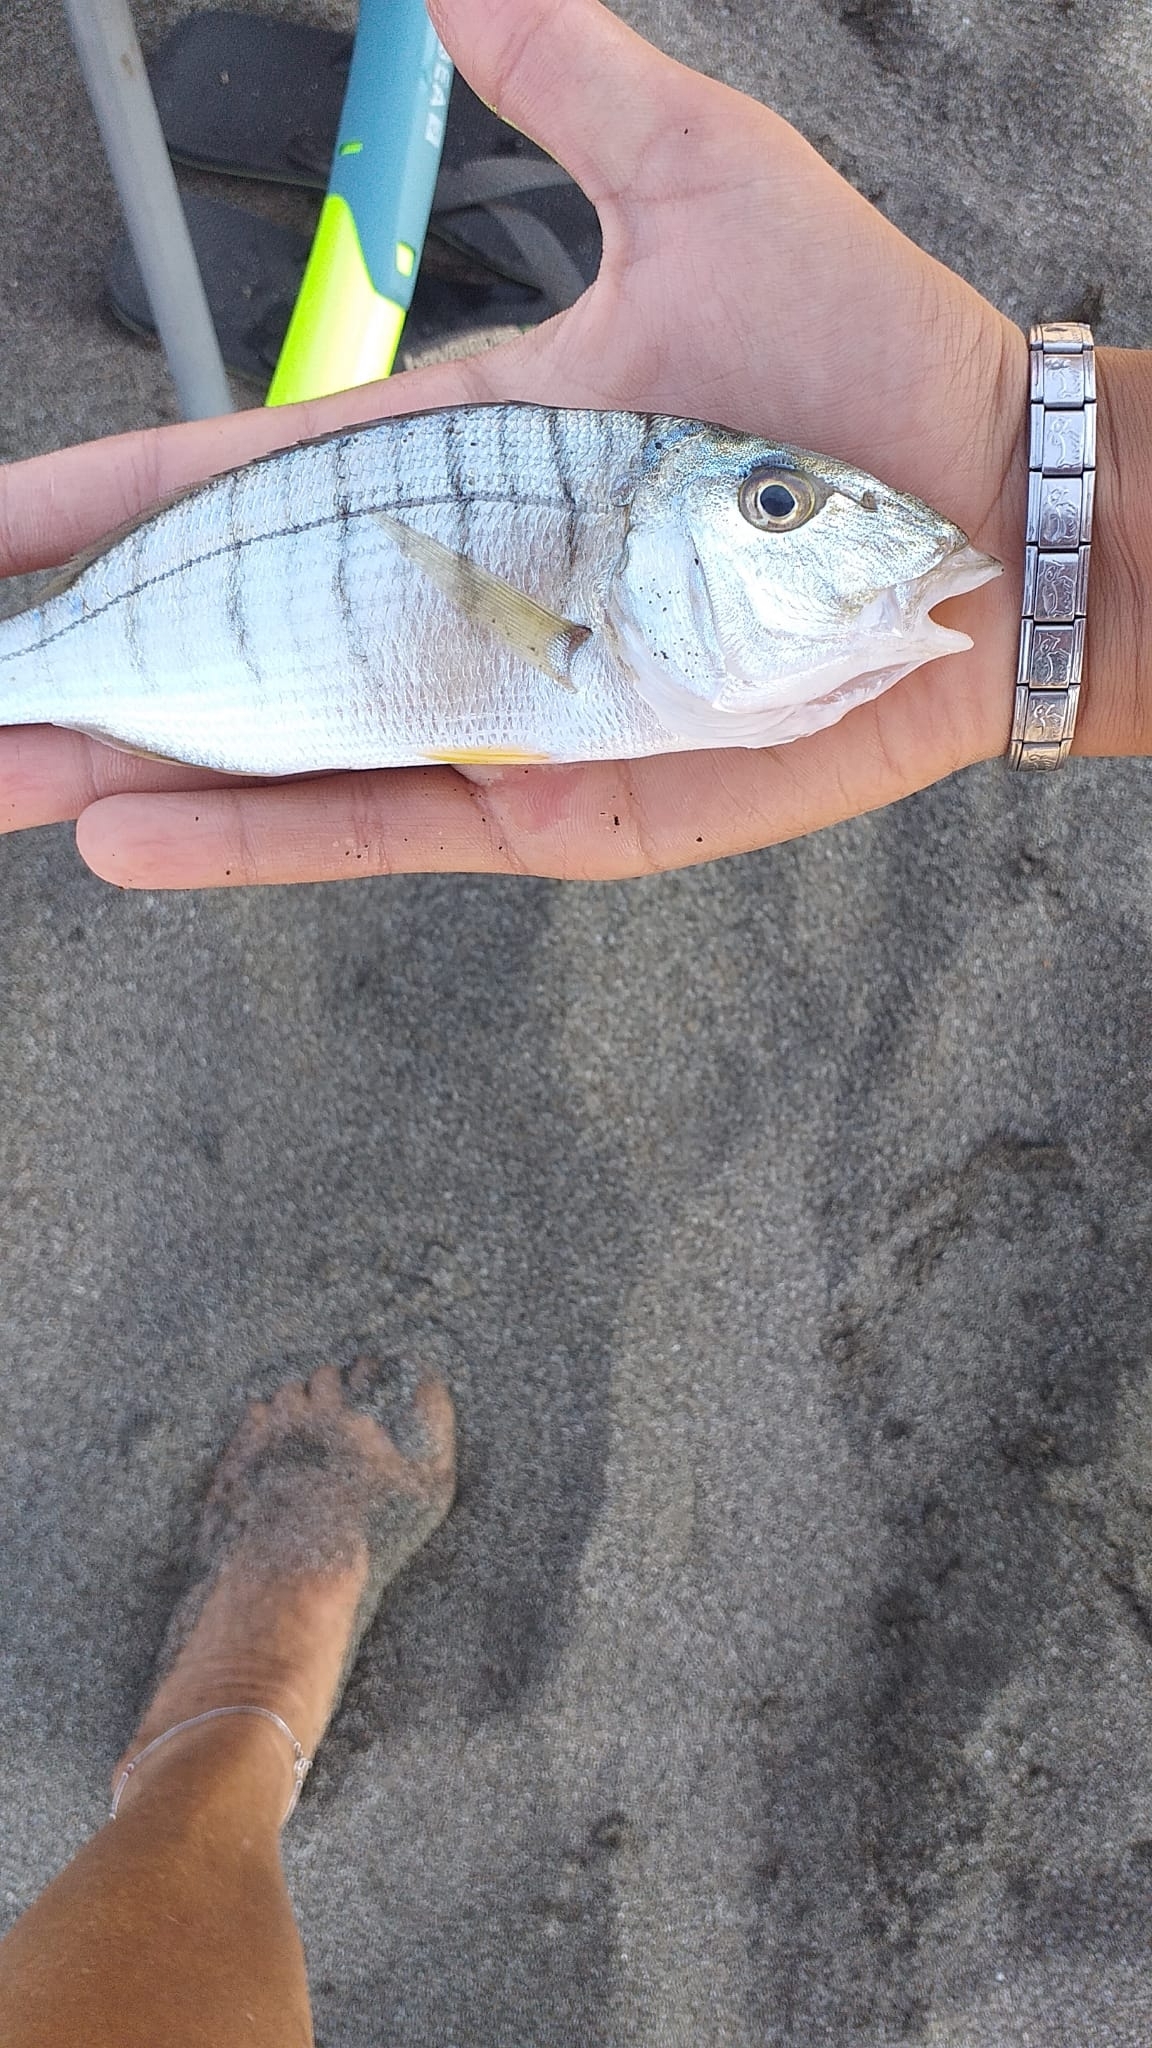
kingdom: Animalia
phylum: Chordata
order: Perciformes
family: Sparidae
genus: Lithognathus
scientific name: Lithognathus mormyrus
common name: Sand steenbras
